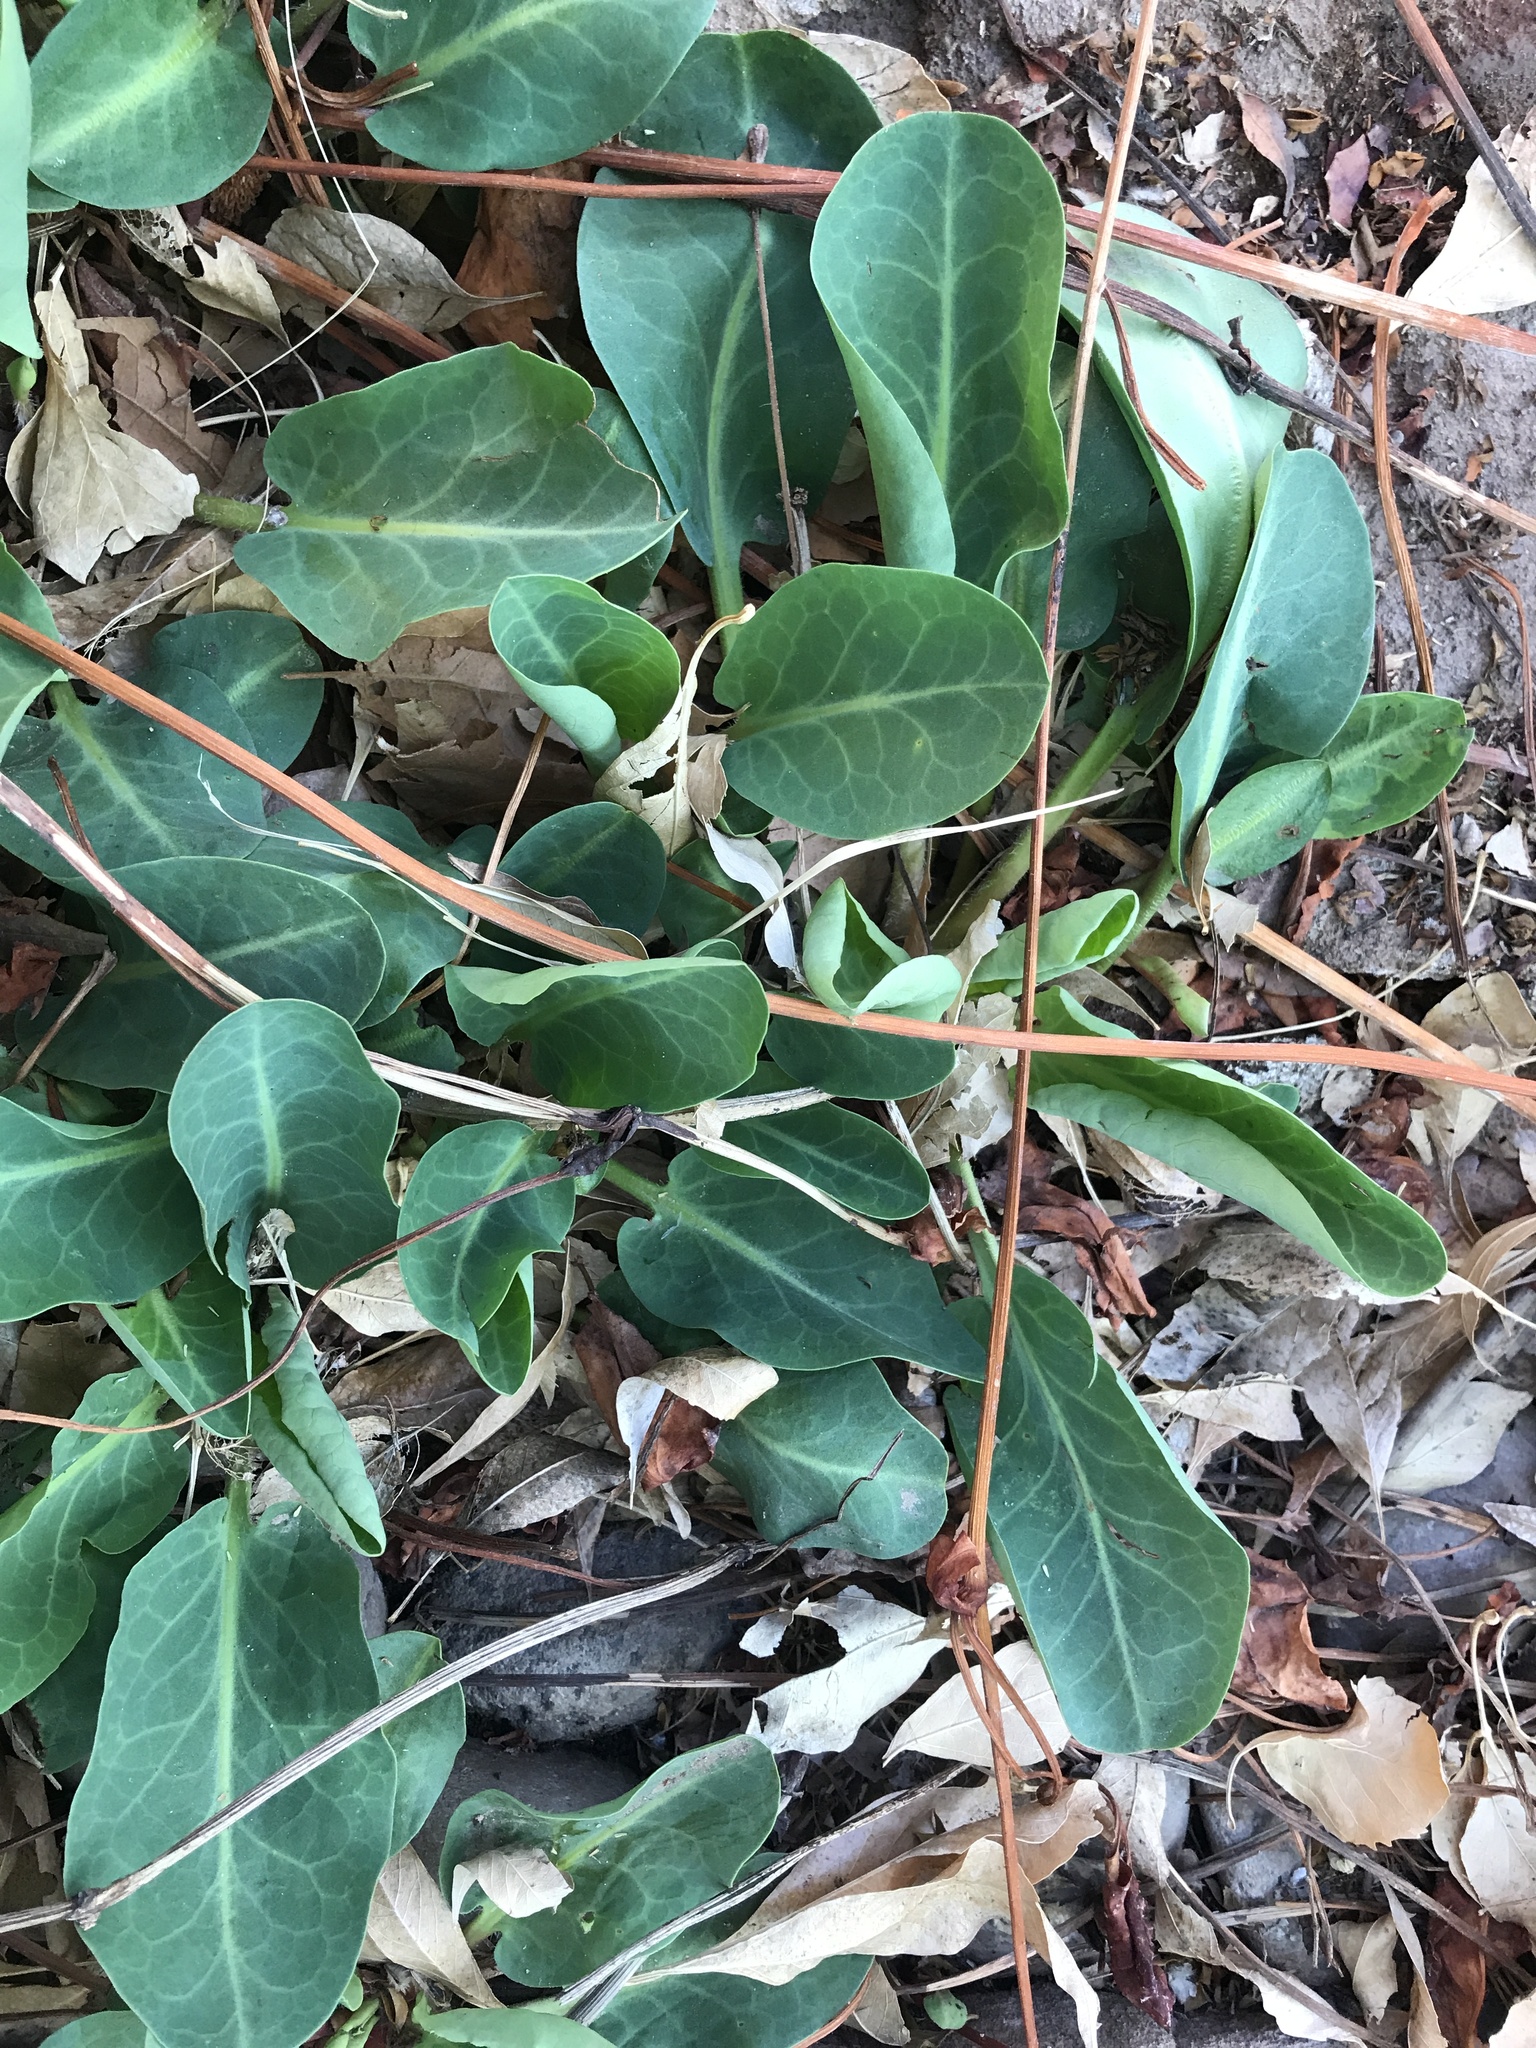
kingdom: Plantae
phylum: Tracheophyta
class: Magnoliopsida
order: Piperales
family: Saururaceae
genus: Anemopsis
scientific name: Anemopsis californica
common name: Apache-beads
